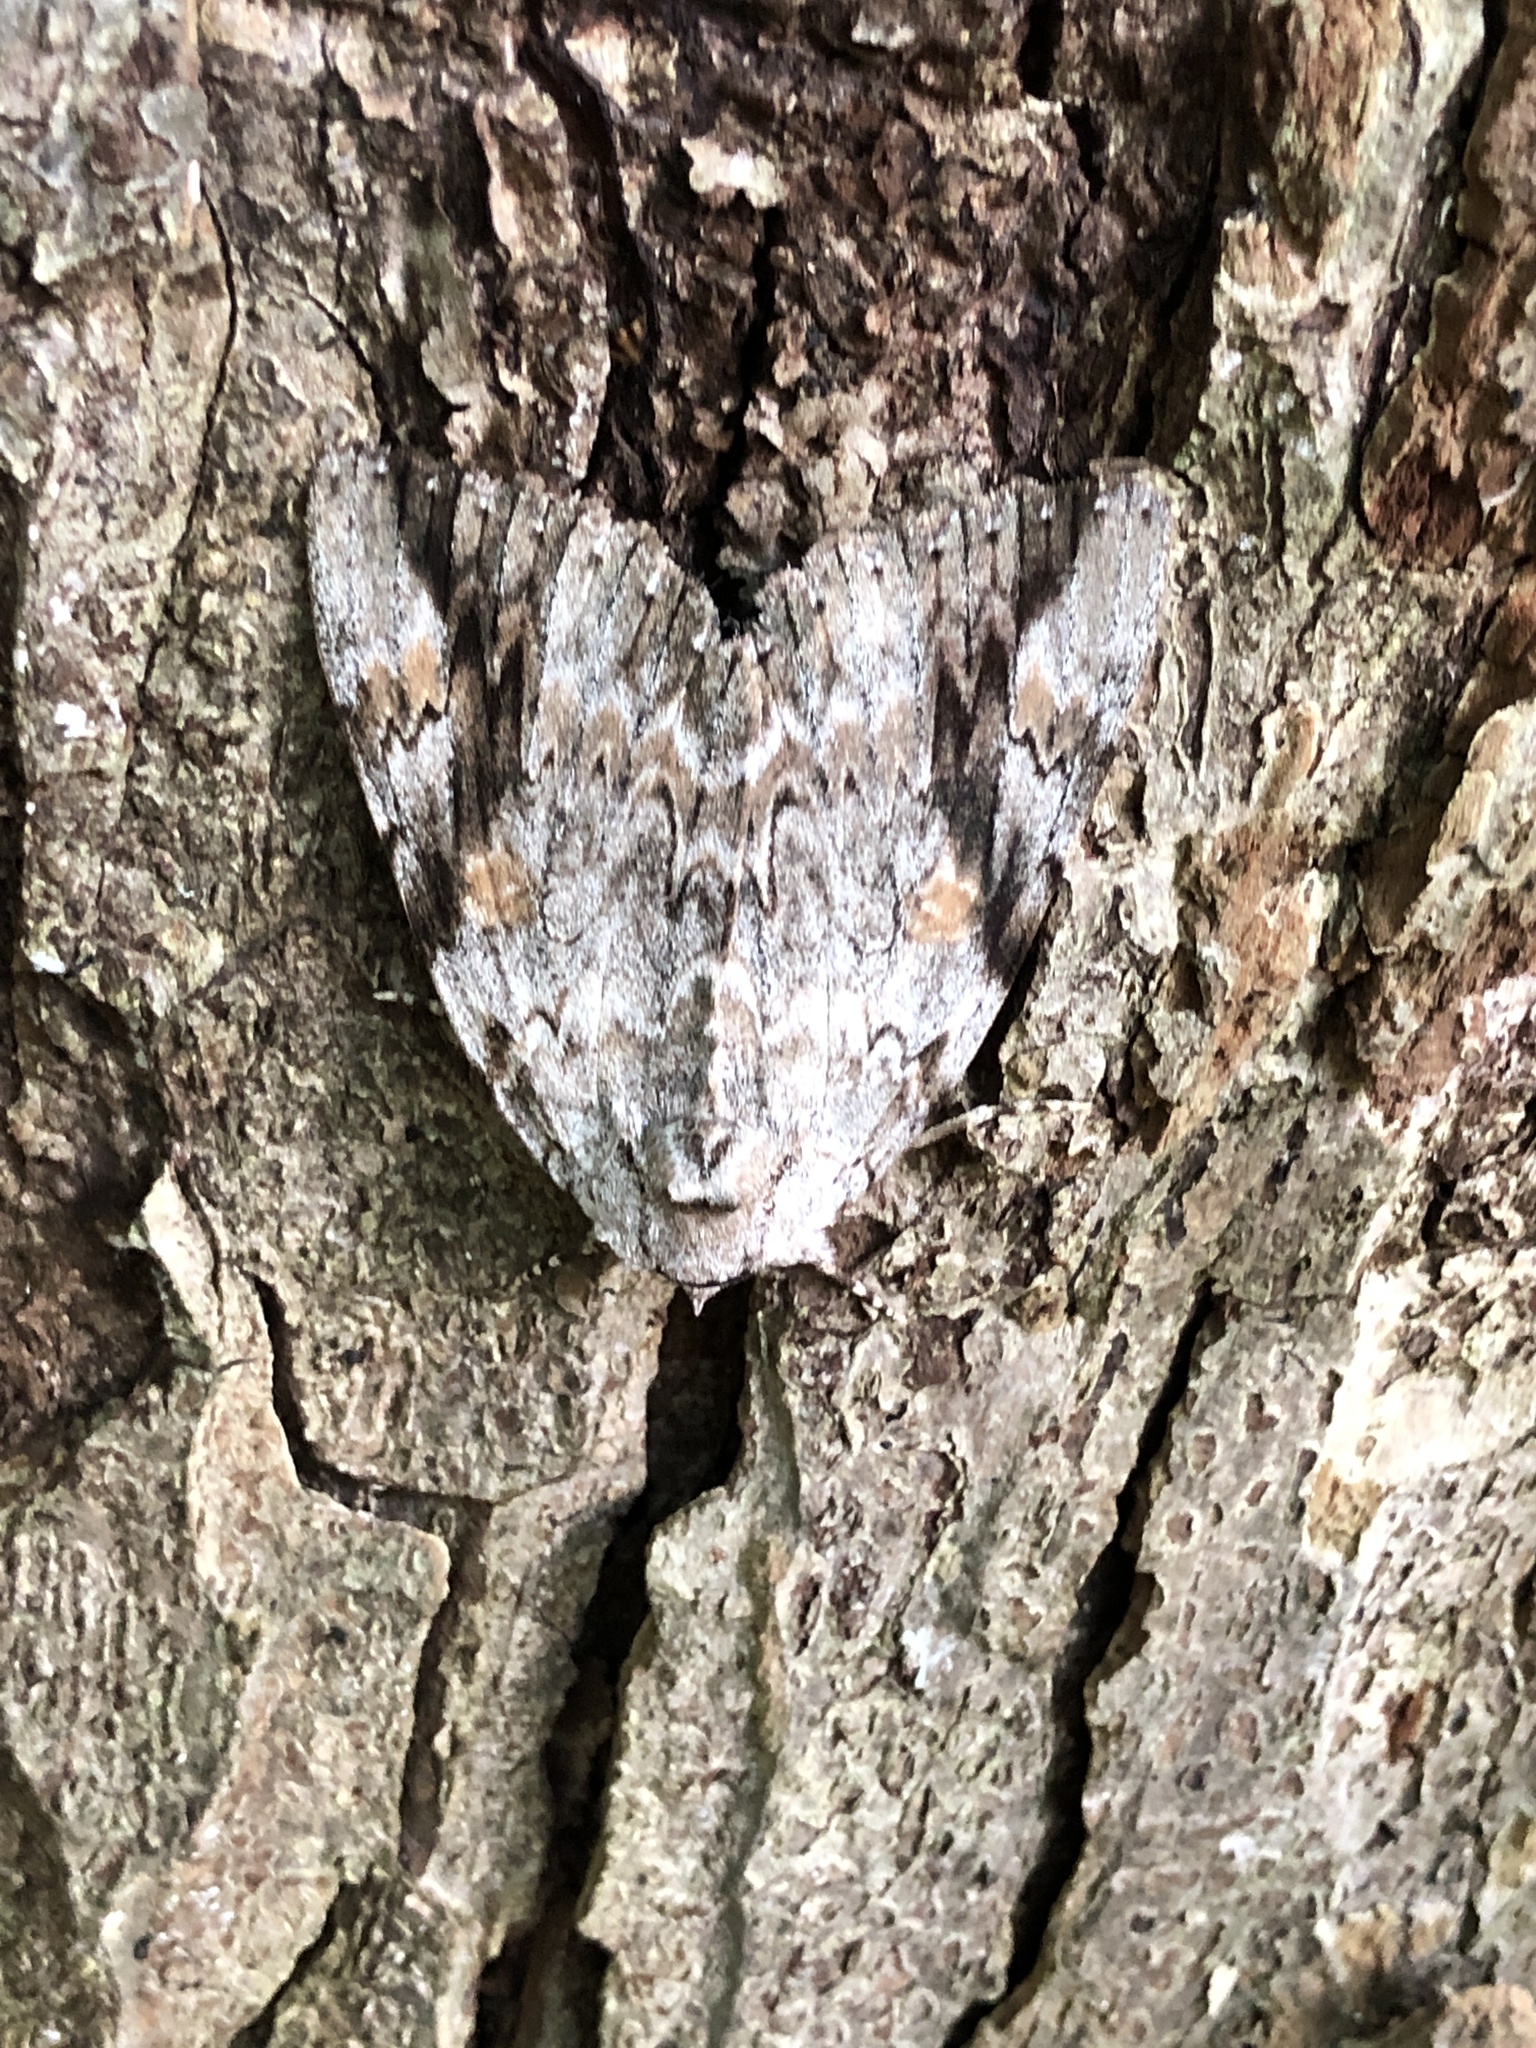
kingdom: Animalia
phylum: Arthropoda
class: Insecta
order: Lepidoptera
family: Erebidae
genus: Catocala
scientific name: Catocala maestosa
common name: Sad underwing
